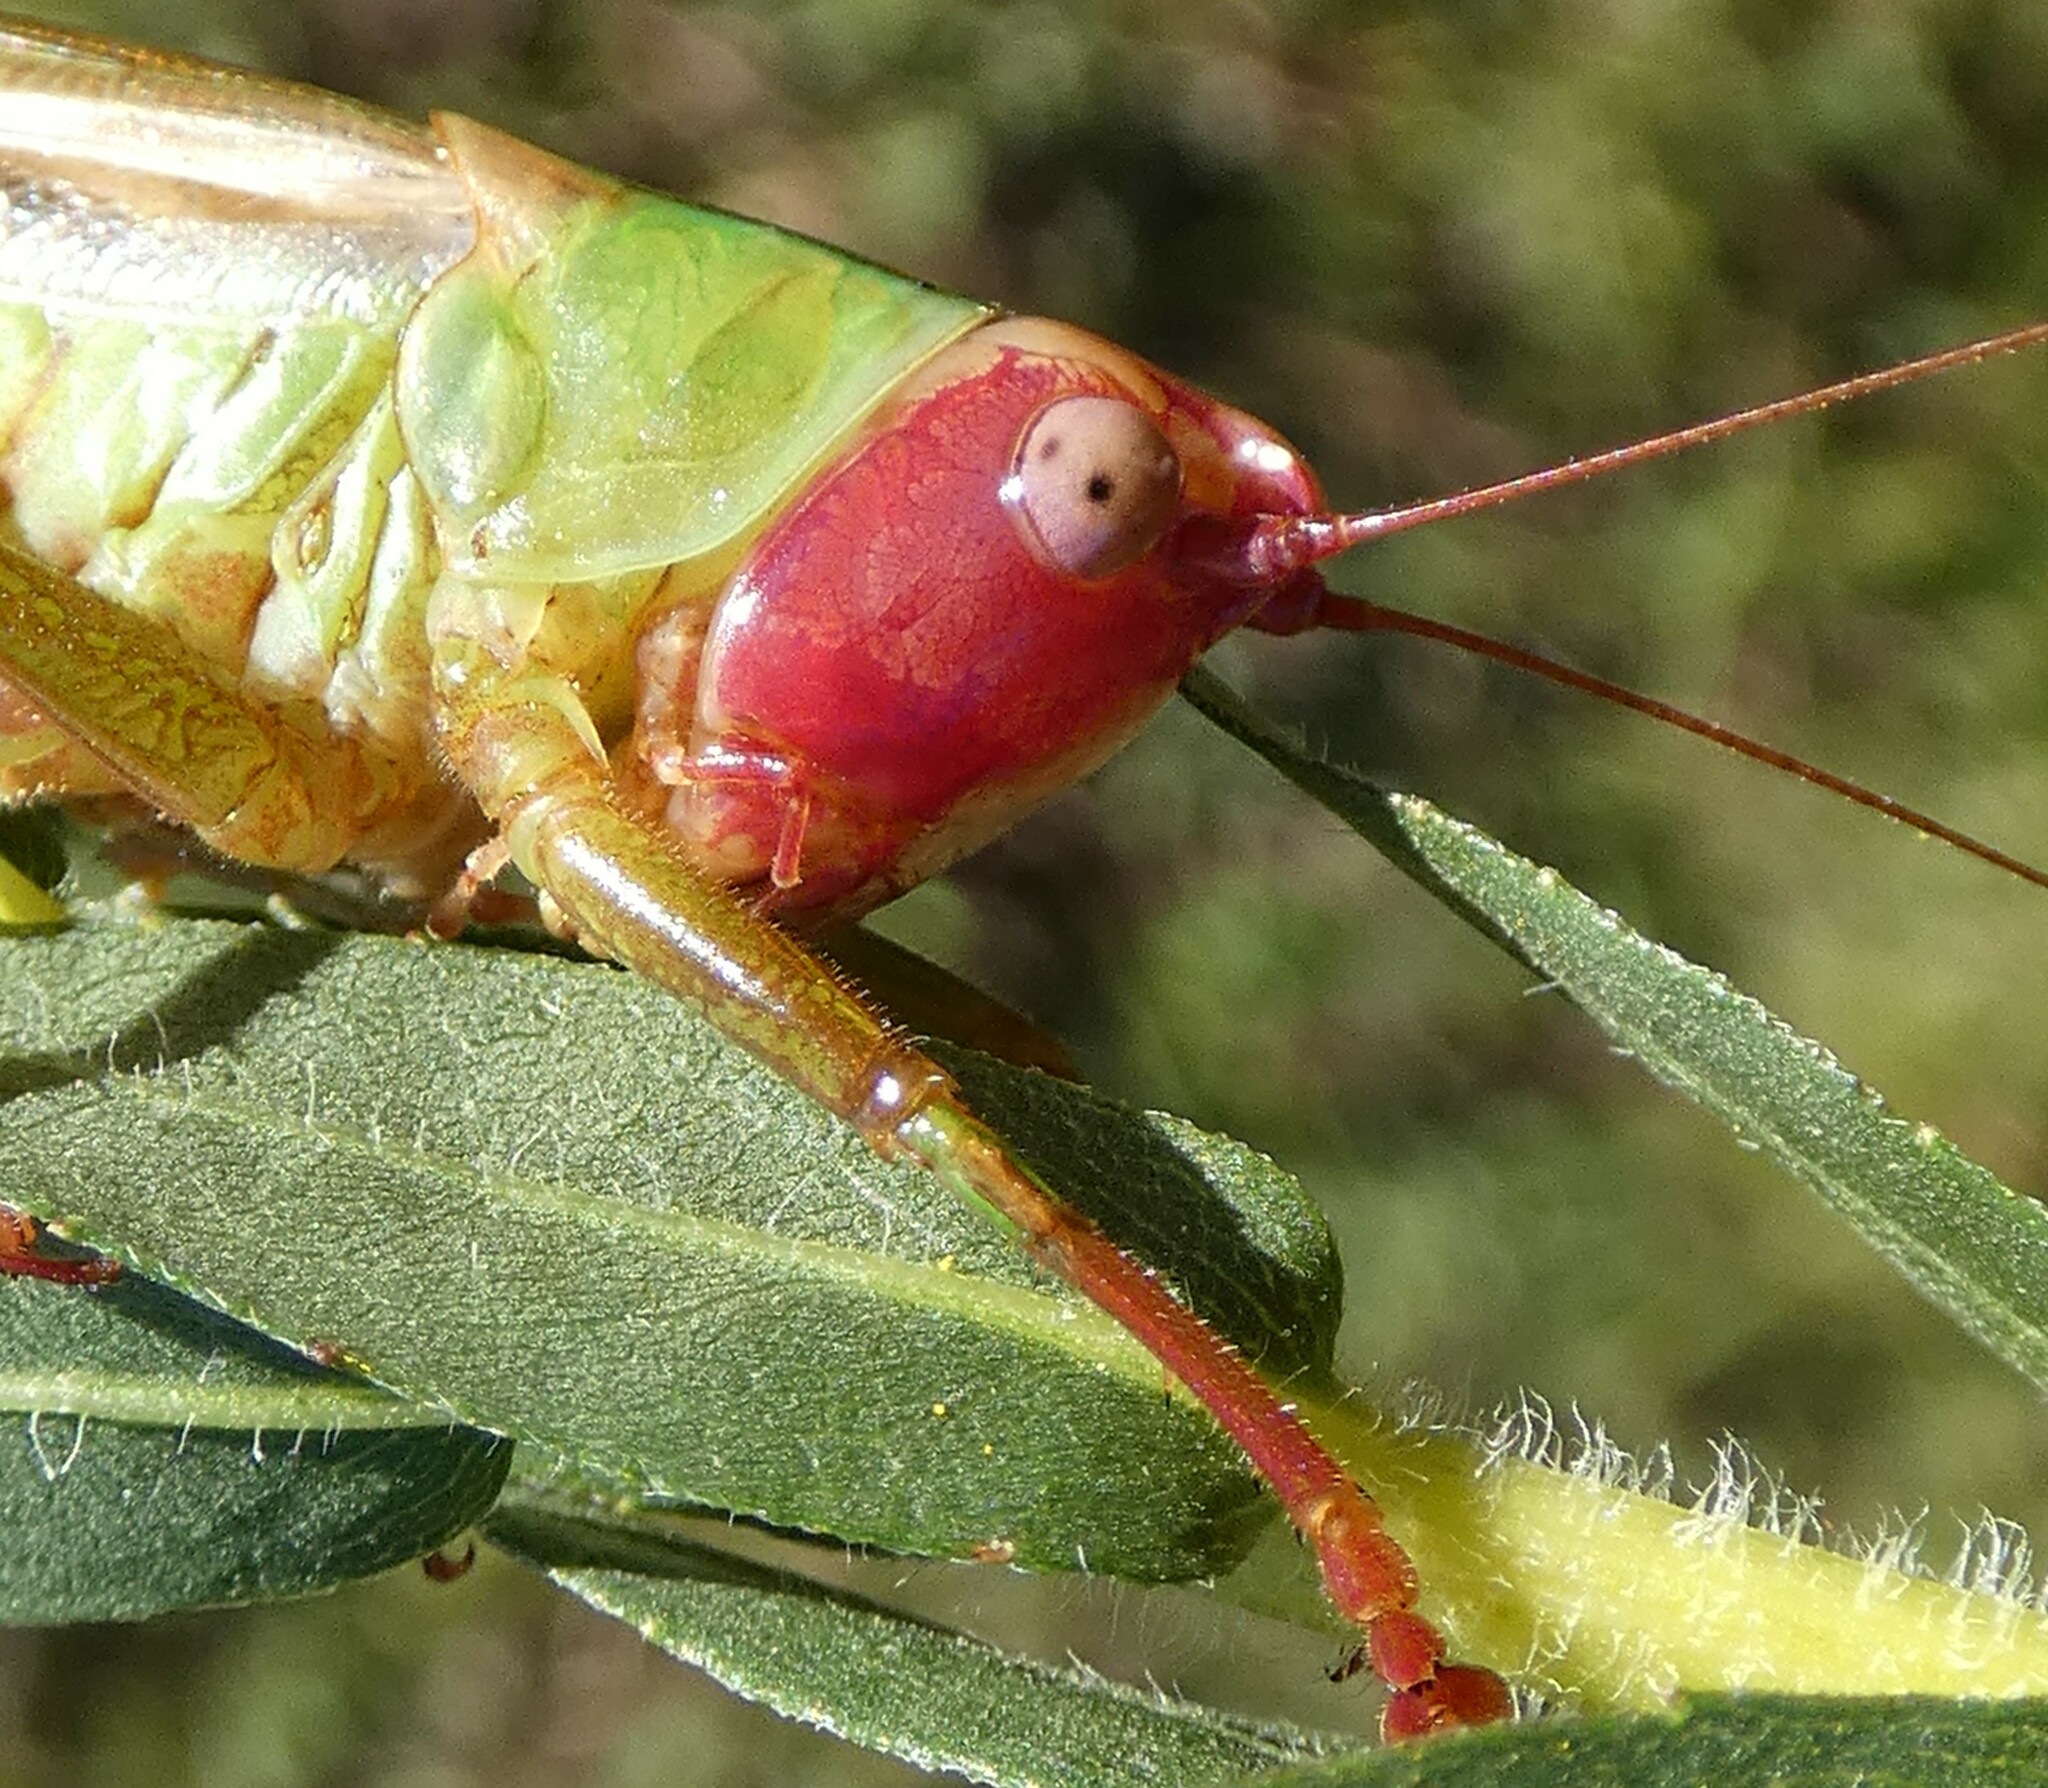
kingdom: Animalia
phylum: Arthropoda
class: Insecta
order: Orthoptera
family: Tettigoniidae
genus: Orchelimum
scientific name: Orchelimum erythrocephalum
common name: Red-headed meadow katydid
